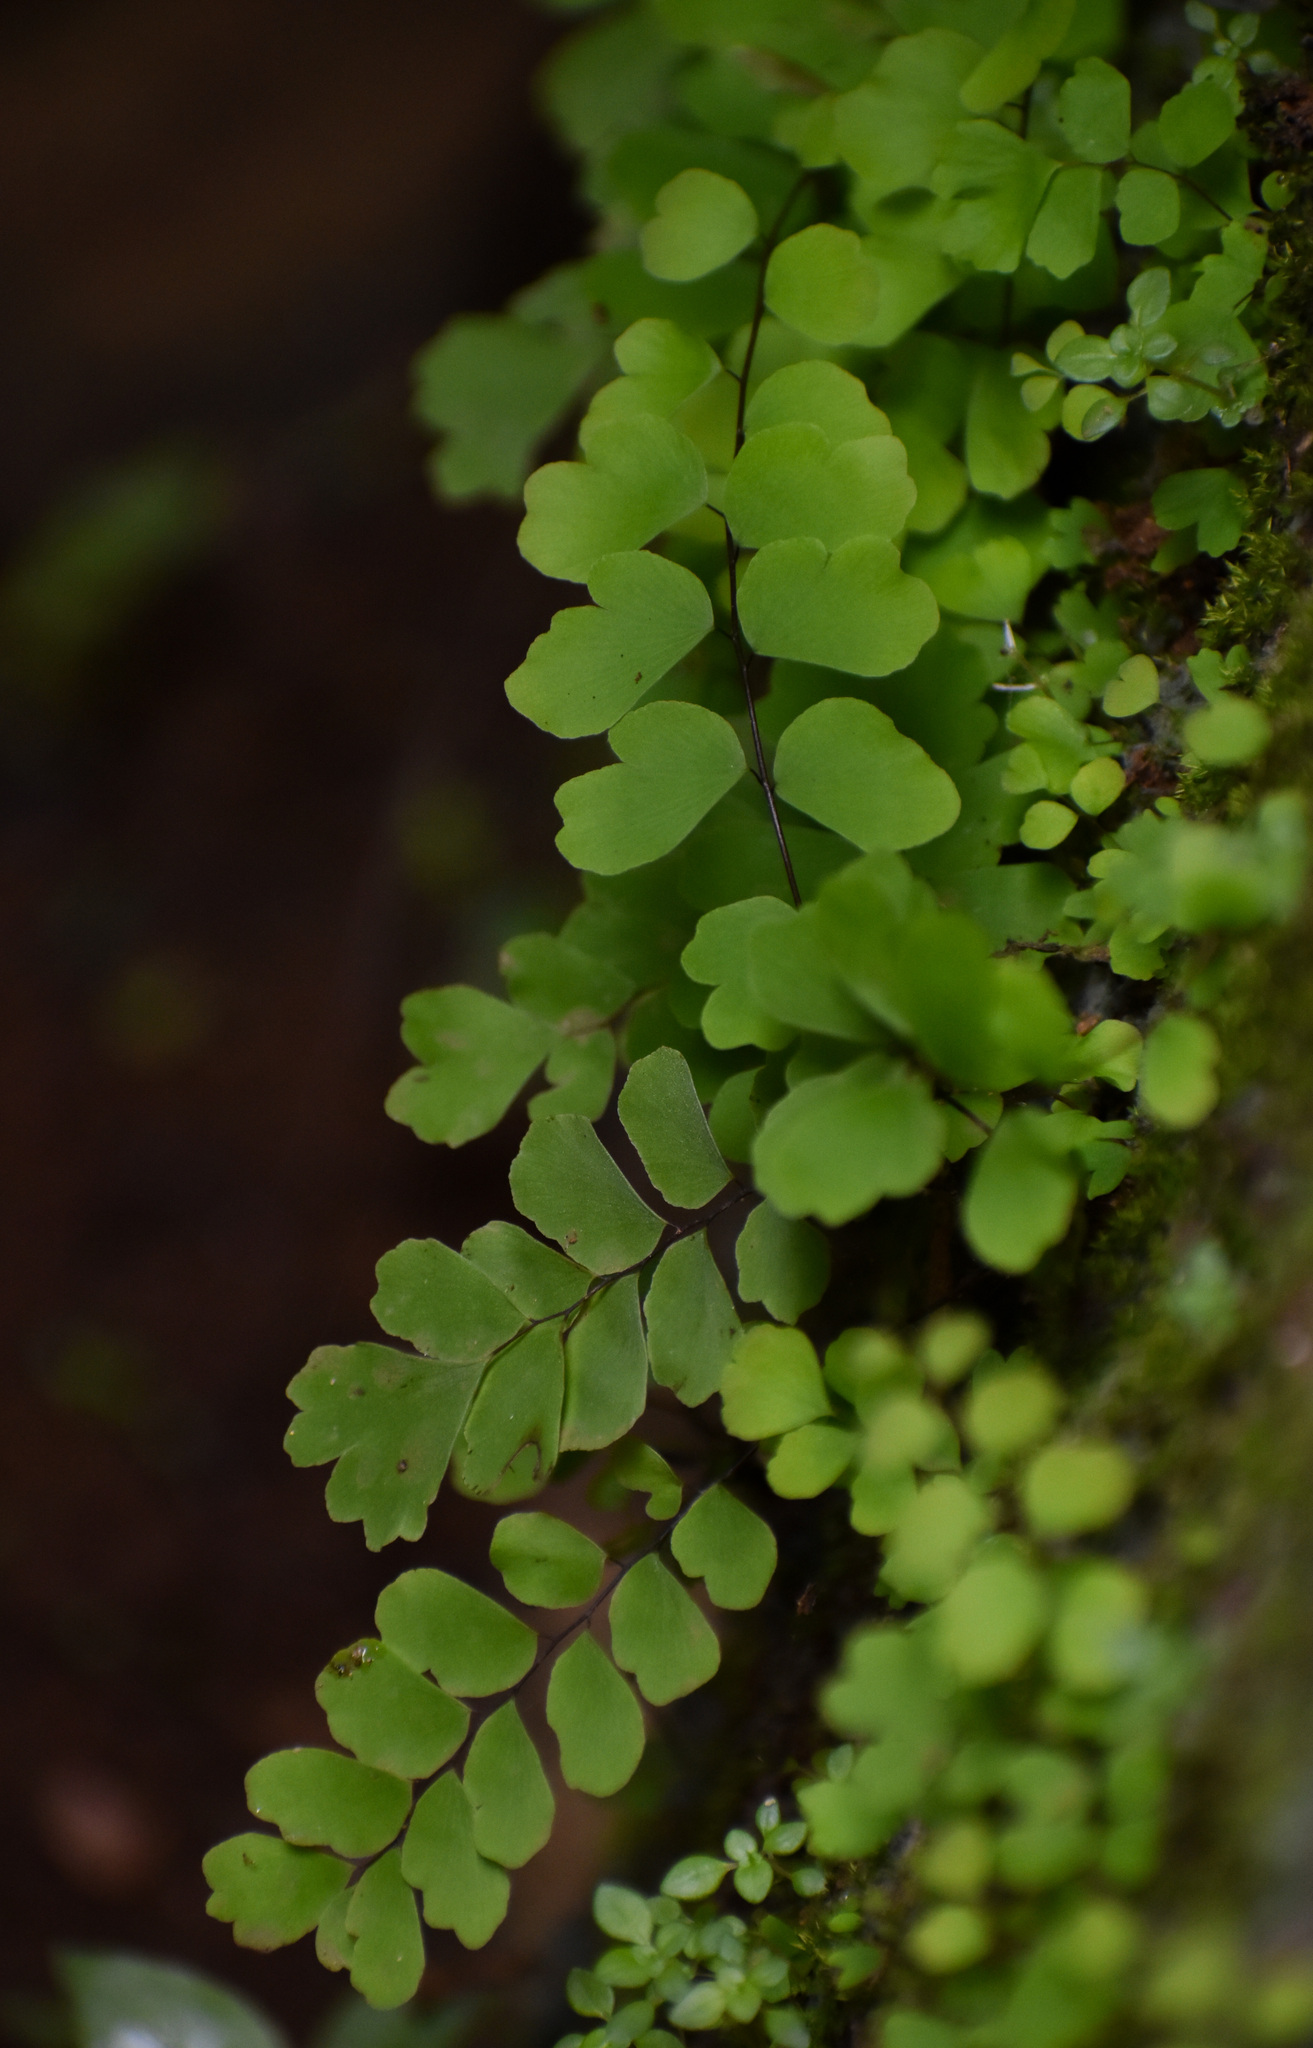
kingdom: Plantae
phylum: Tracheophyta
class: Polypodiopsida
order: Polypodiales
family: Pteridaceae
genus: Adiantum
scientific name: Adiantum philippense
